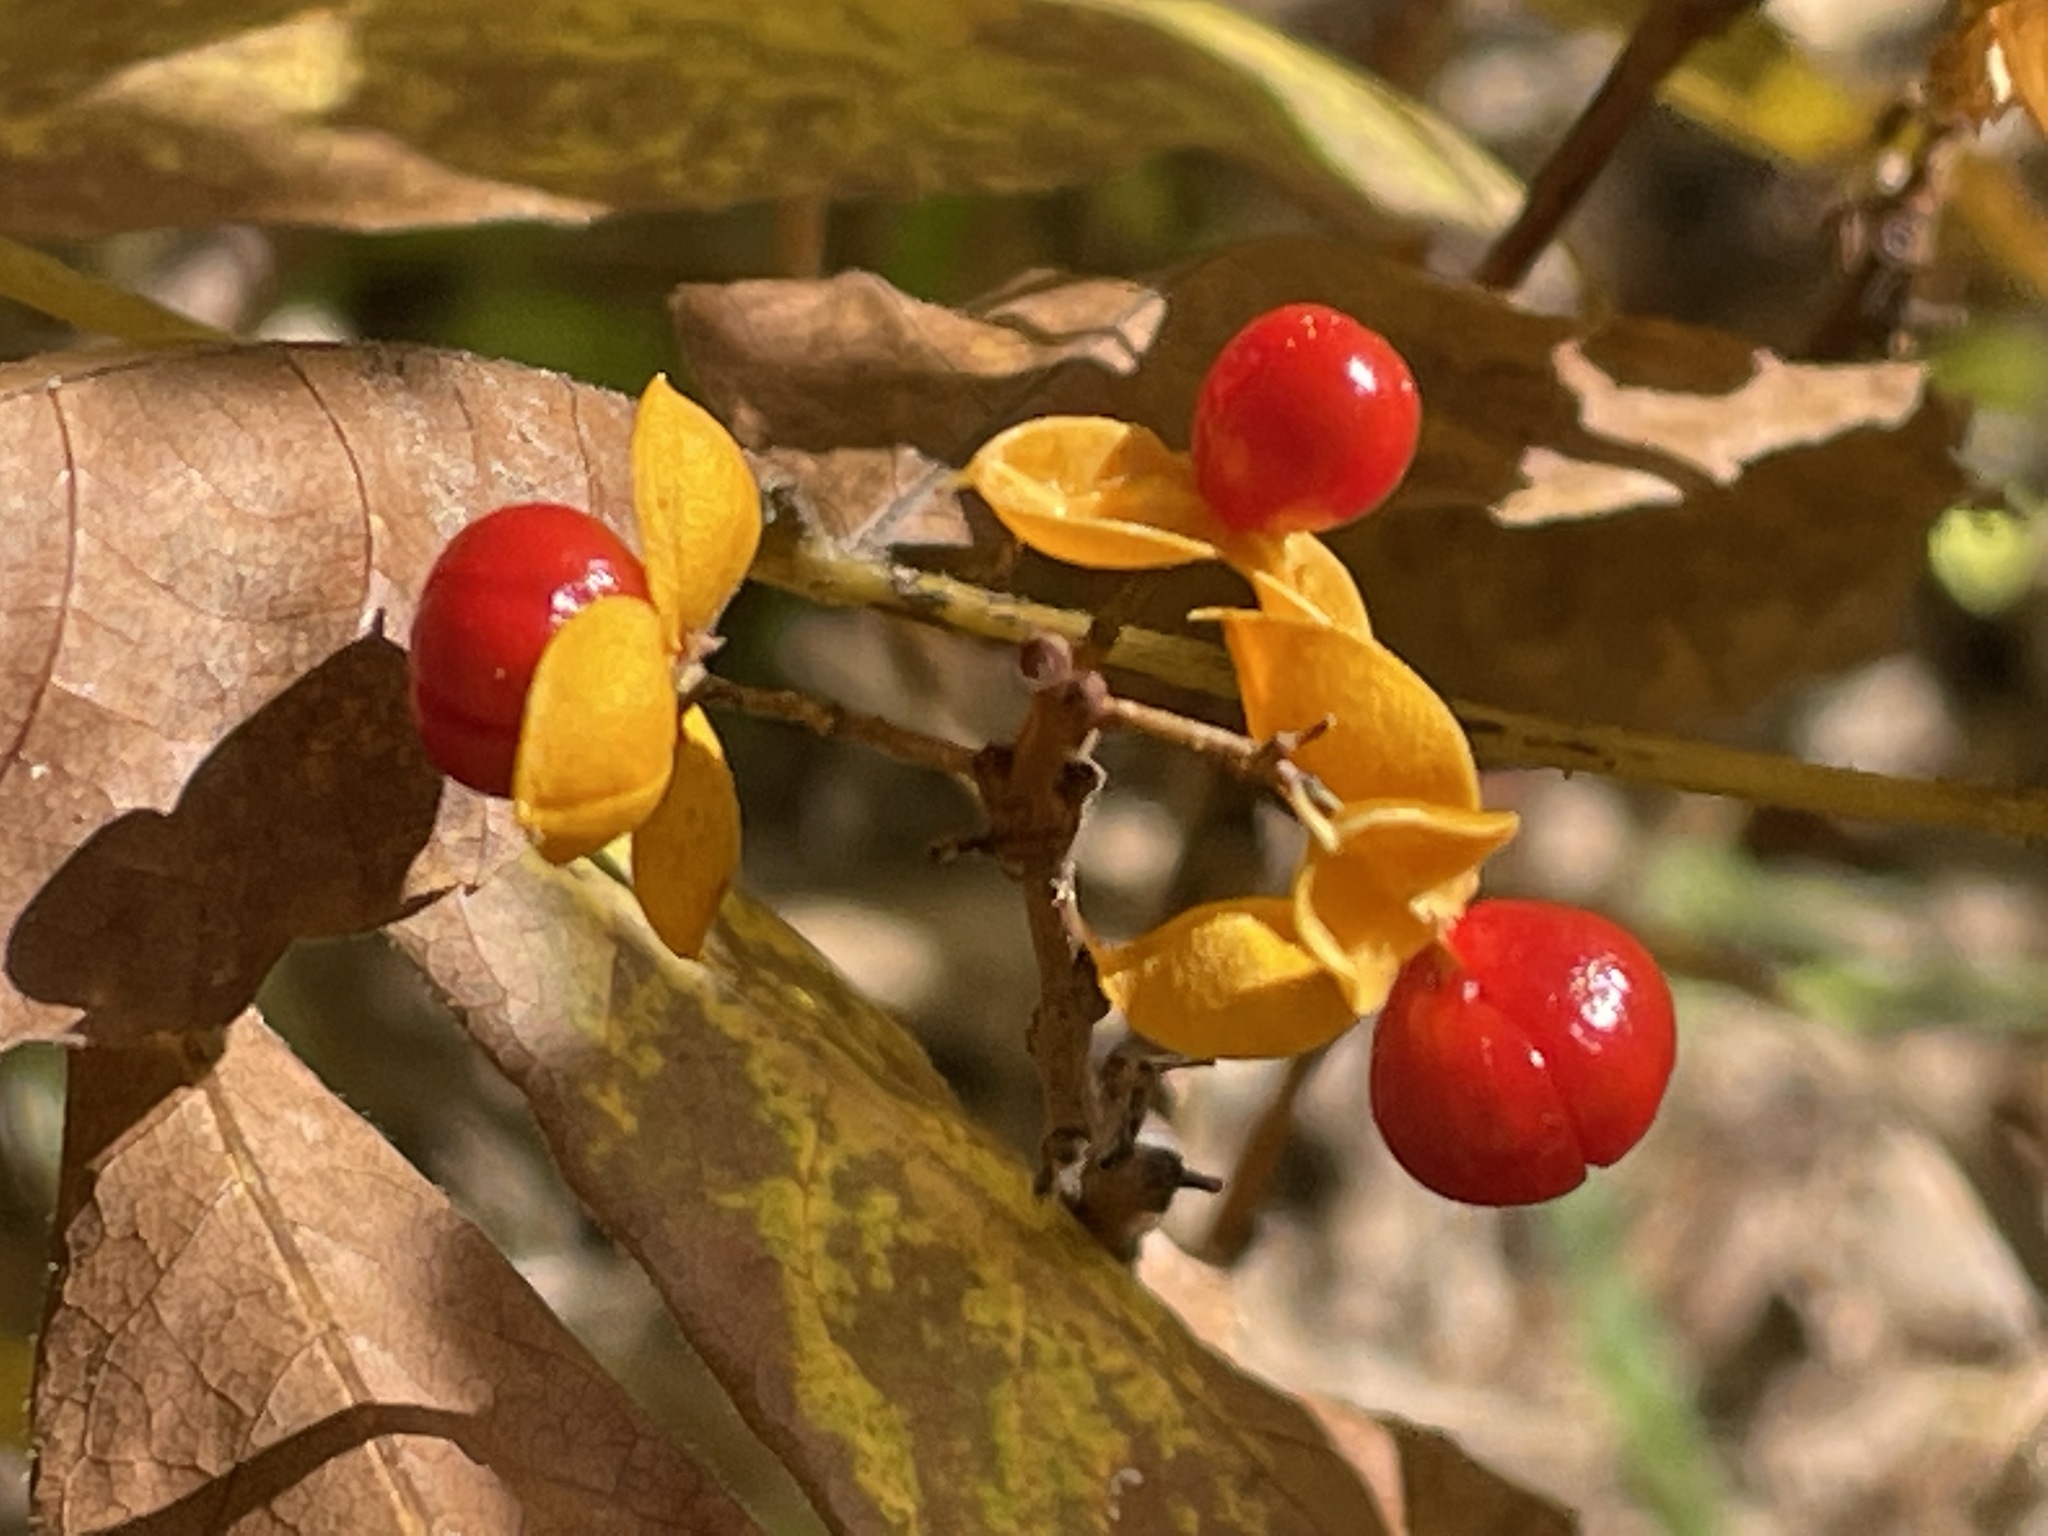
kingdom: Plantae
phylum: Tracheophyta
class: Magnoliopsida
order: Celastrales
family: Celastraceae
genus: Celastrus
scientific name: Celastrus orbiculatus
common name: Oriental bittersweet
